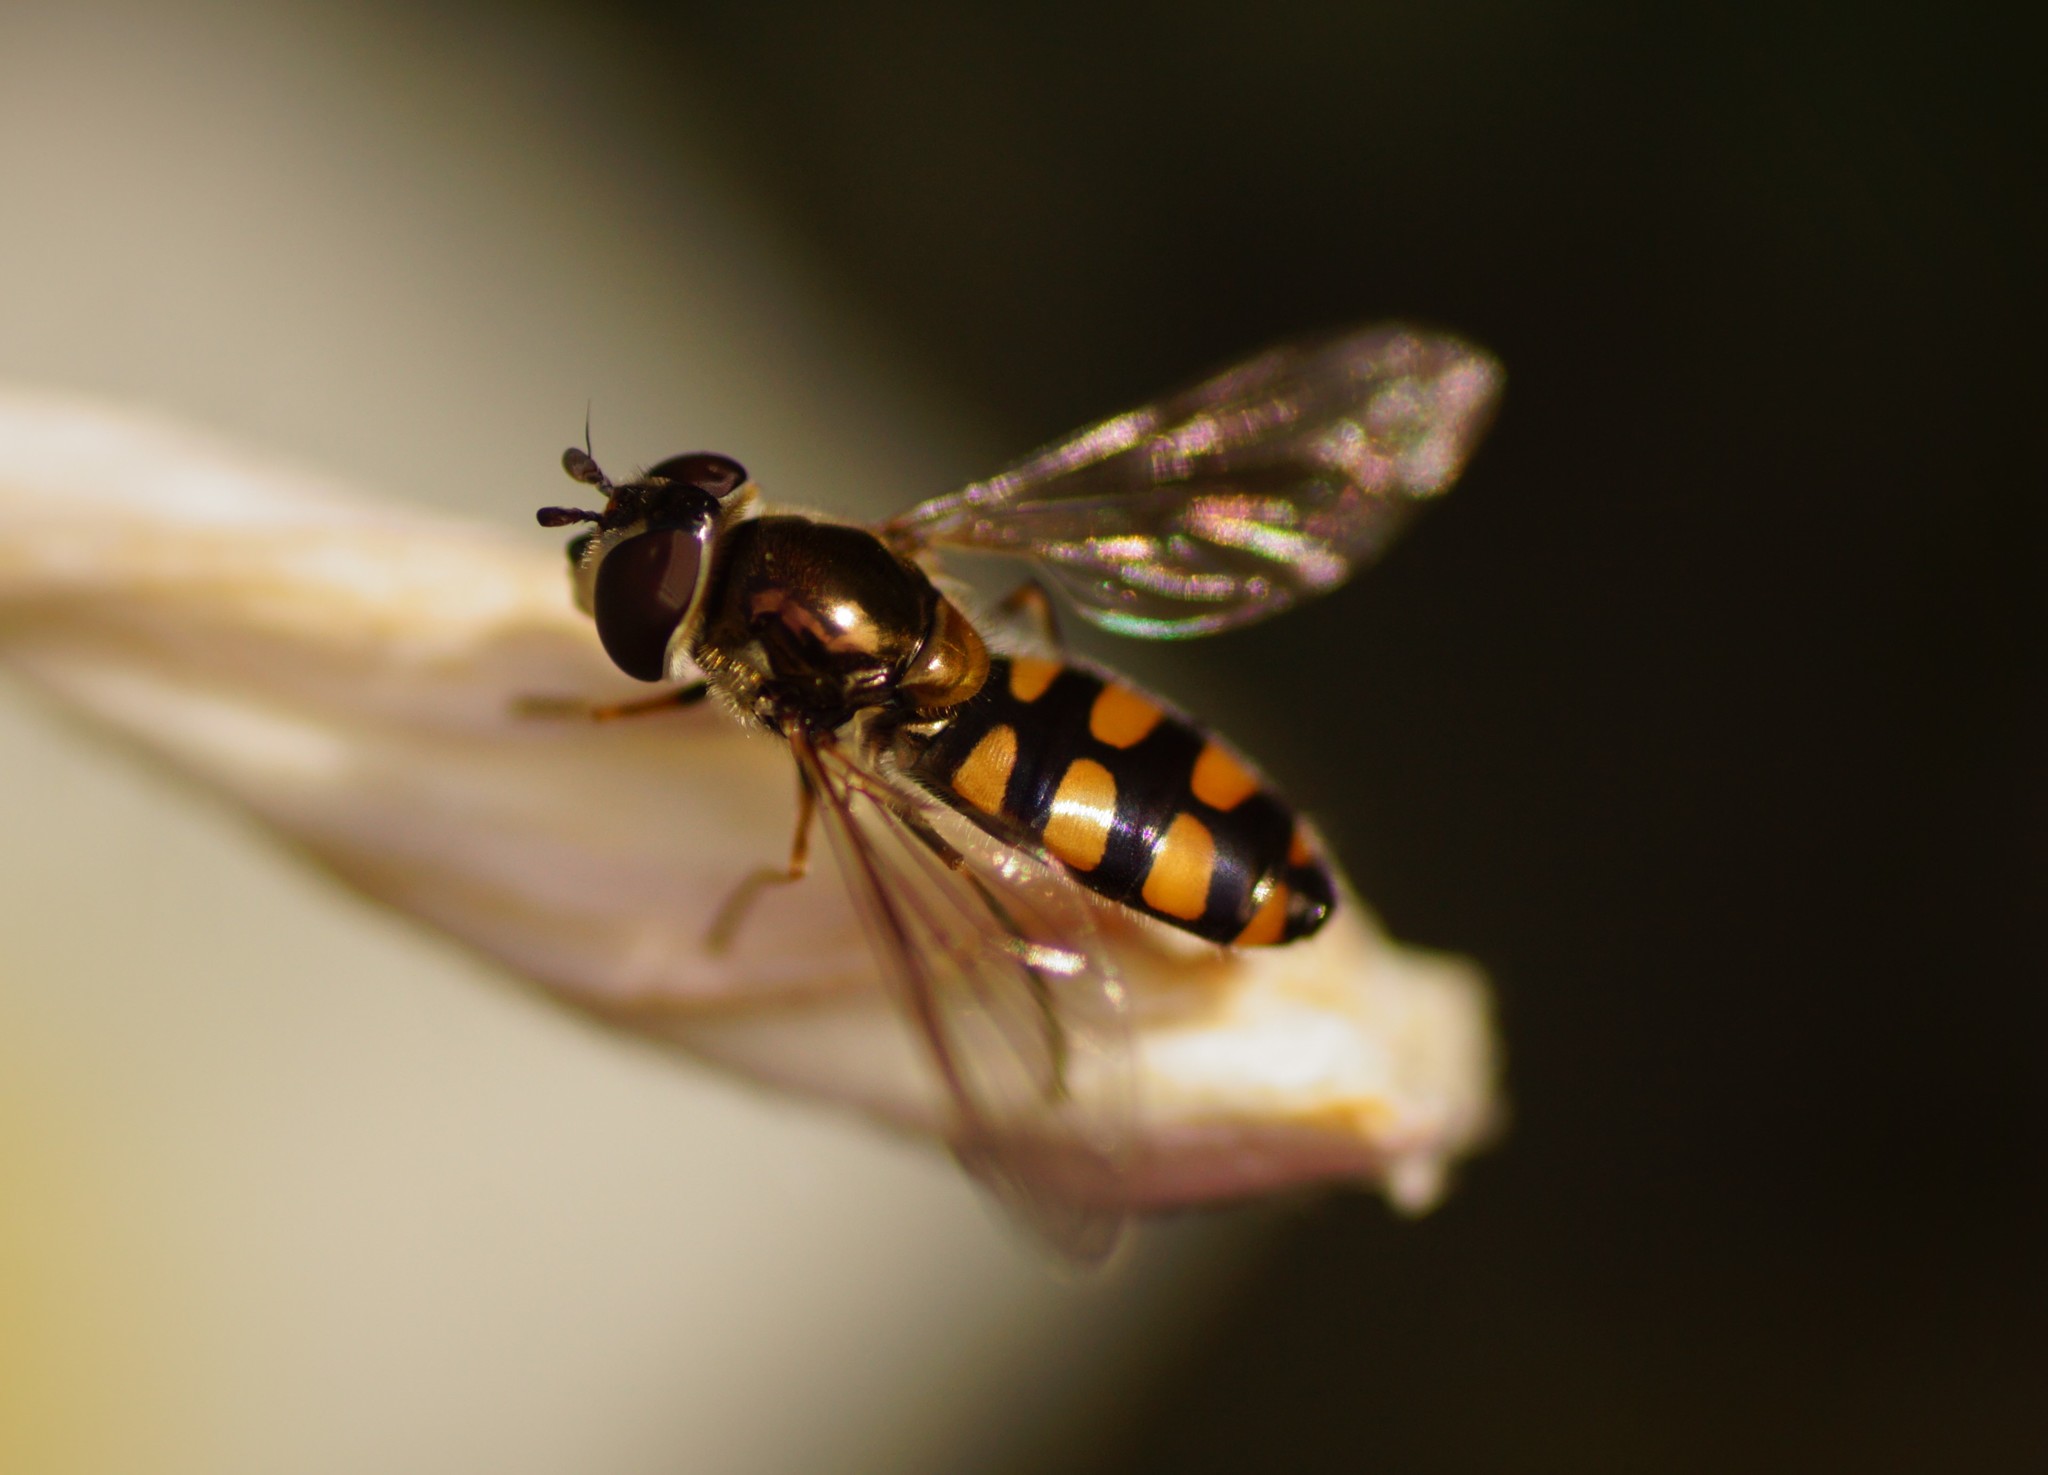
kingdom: Animalia
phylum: Arthropoda
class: Insecta
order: Diptera
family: Syrphidae
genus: Melangyna
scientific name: Melangyna viridiceps
